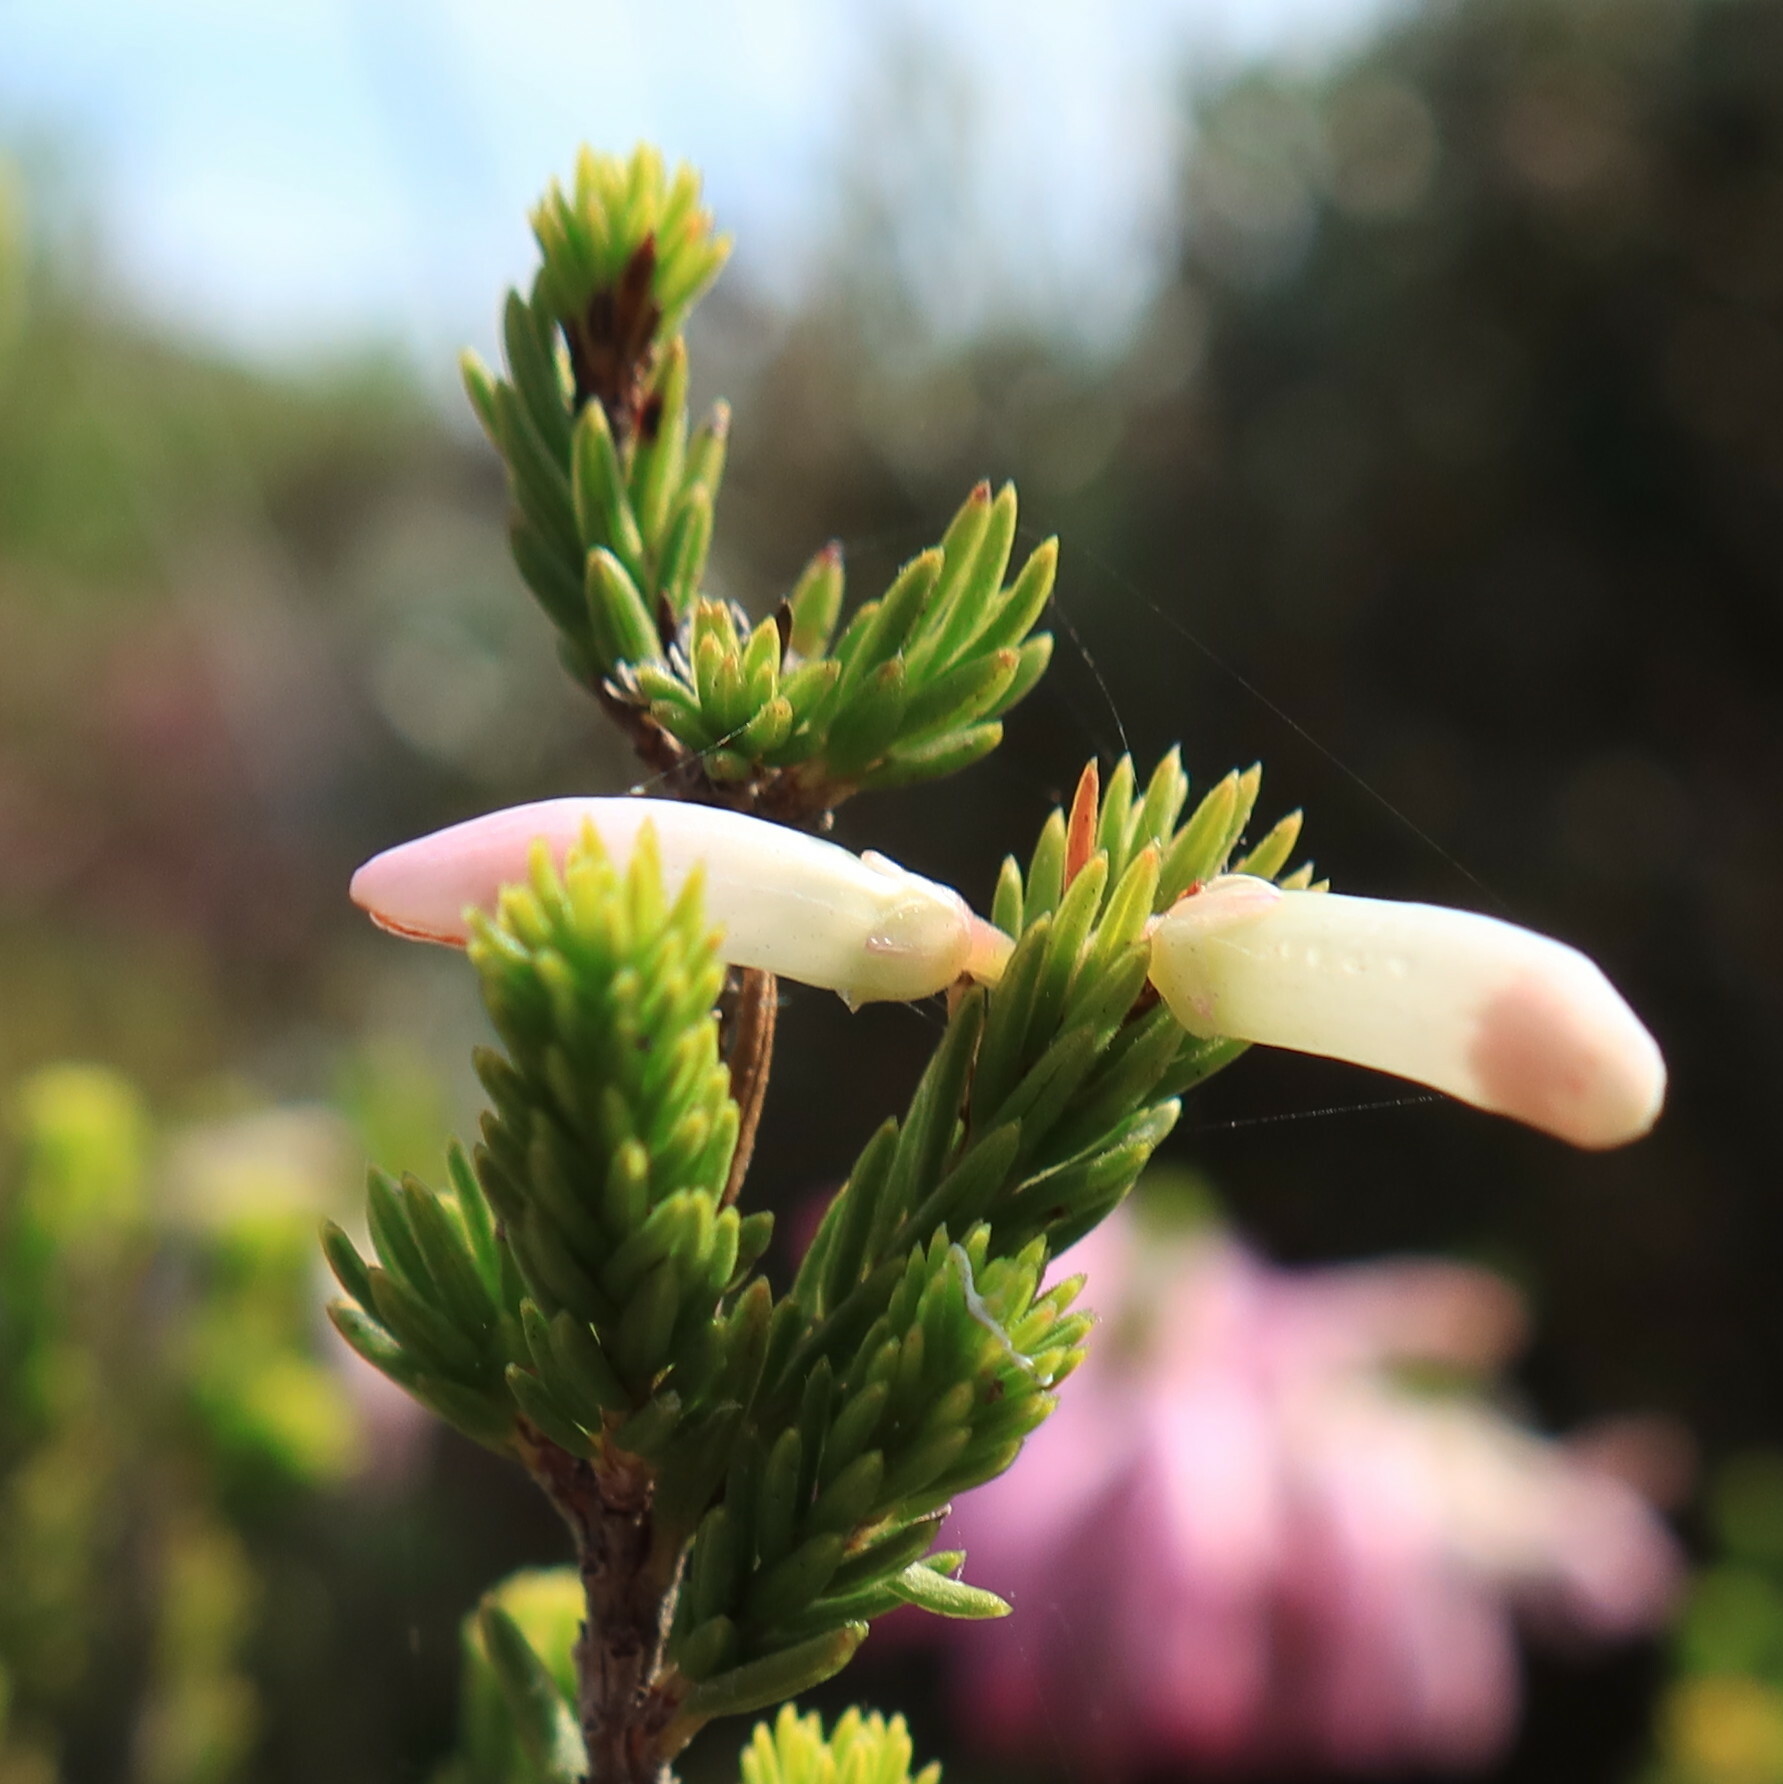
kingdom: Plantae
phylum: Tracheophyta
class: Magnoliopsida
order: Ericales
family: Ericaceae
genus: Erica
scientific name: Erica mammosa
